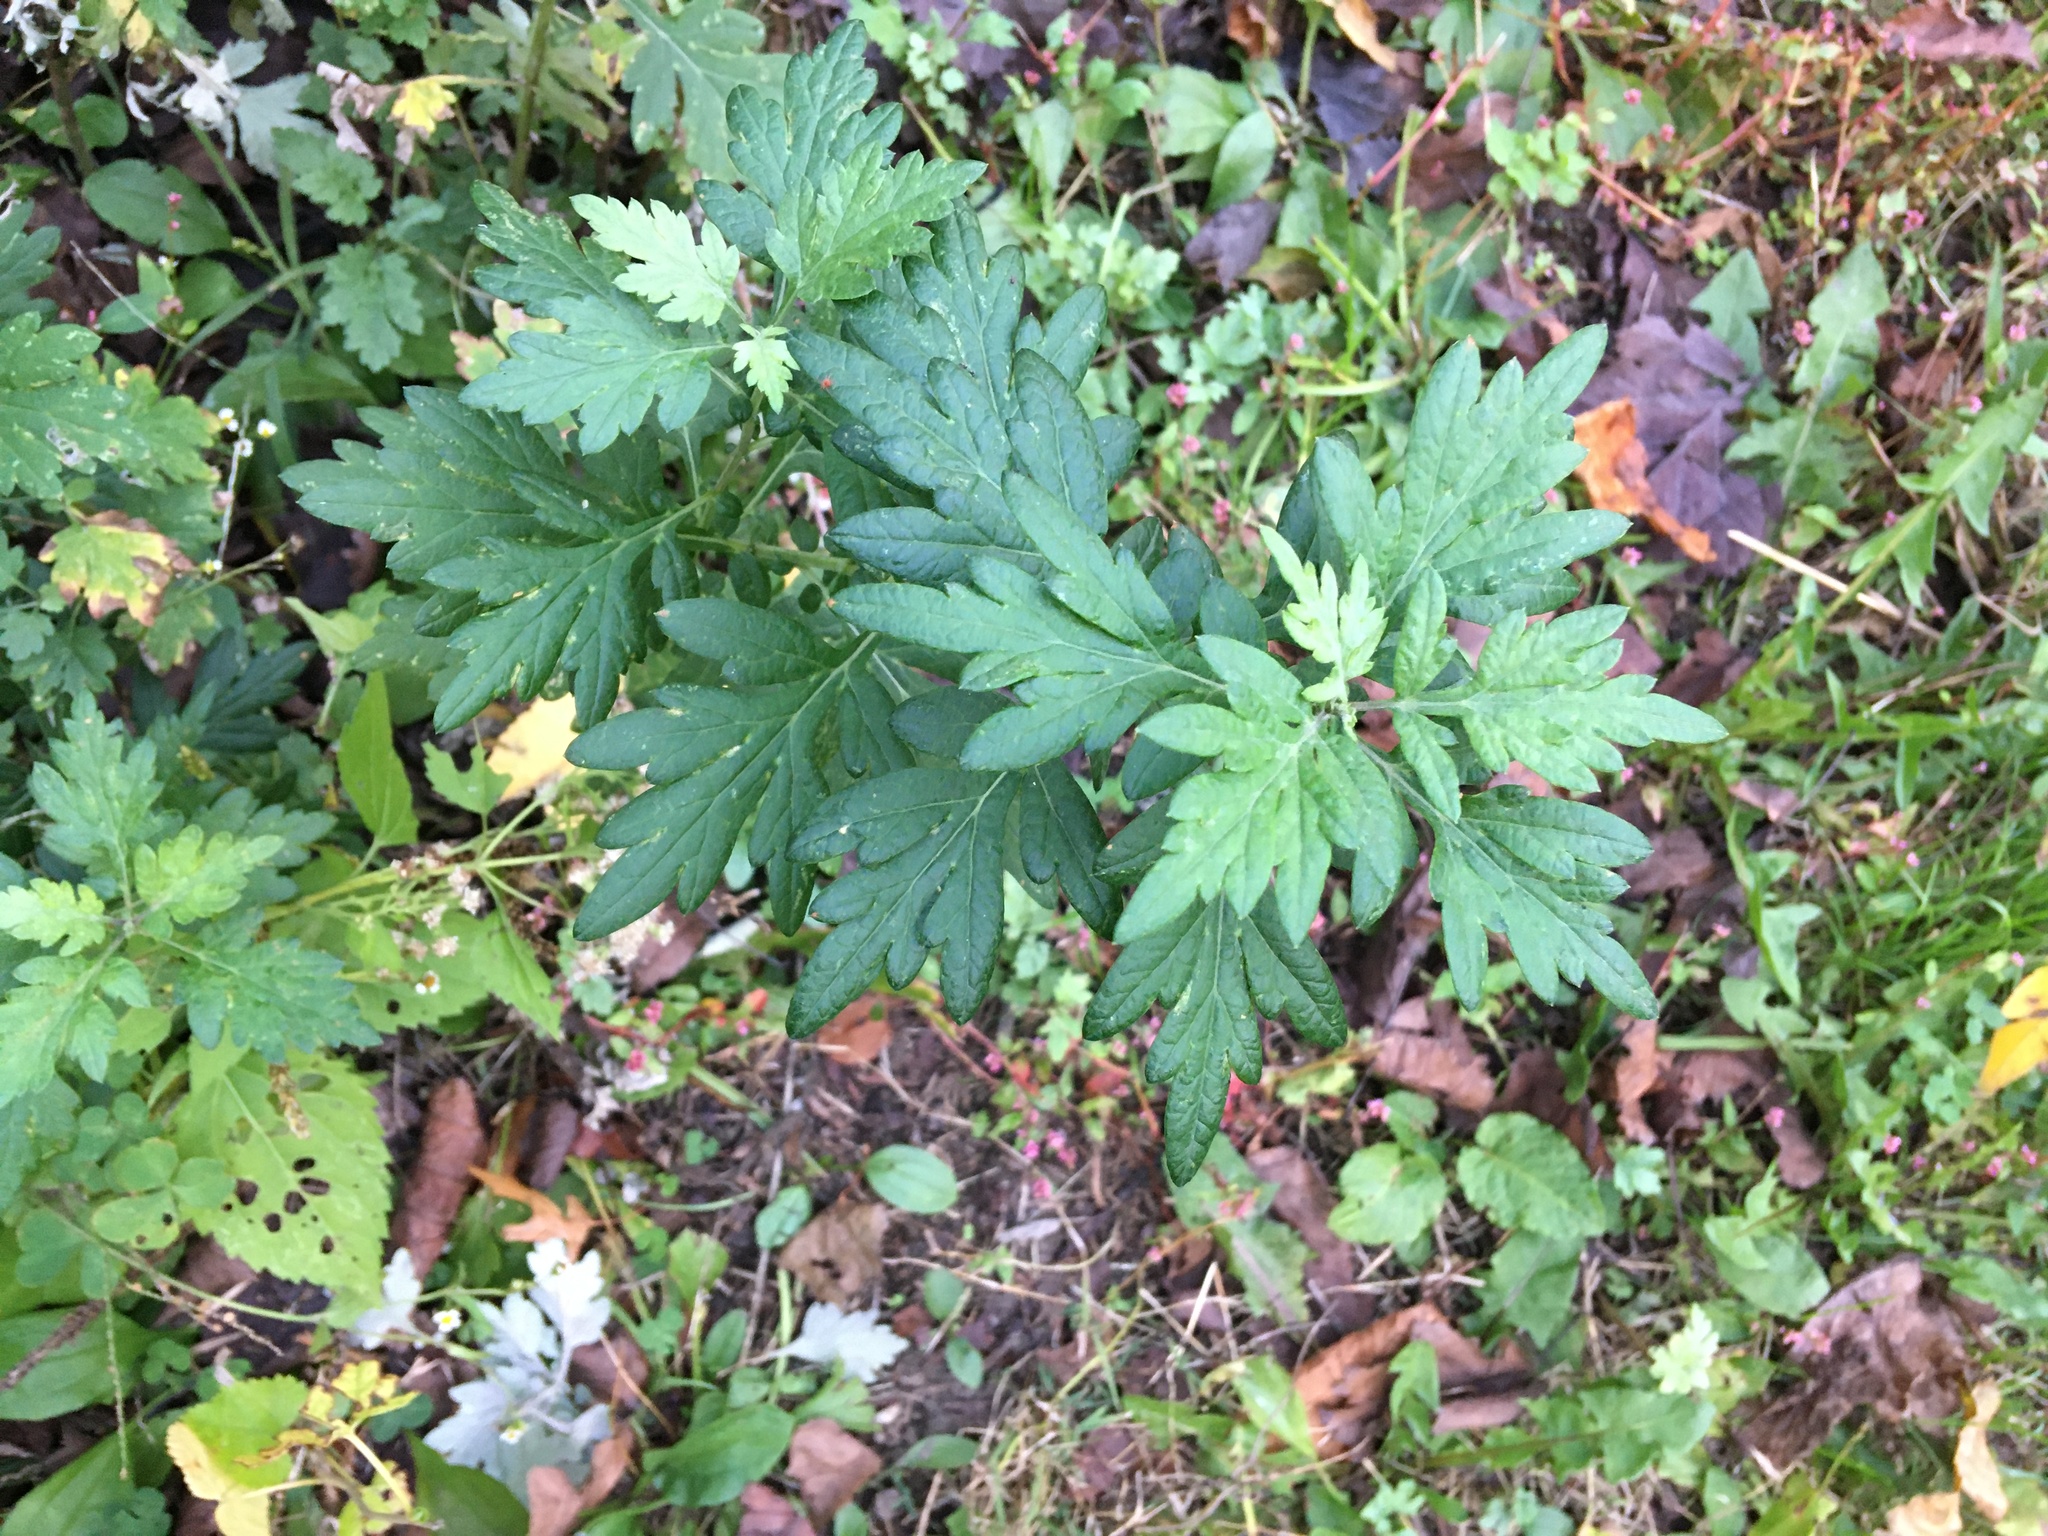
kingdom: Plantae
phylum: Tracheophyta
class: Magnoliopsida
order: Asterales
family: Asteraceae
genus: Artemisia
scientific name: Artemisia vulgaris
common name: Mugwort
